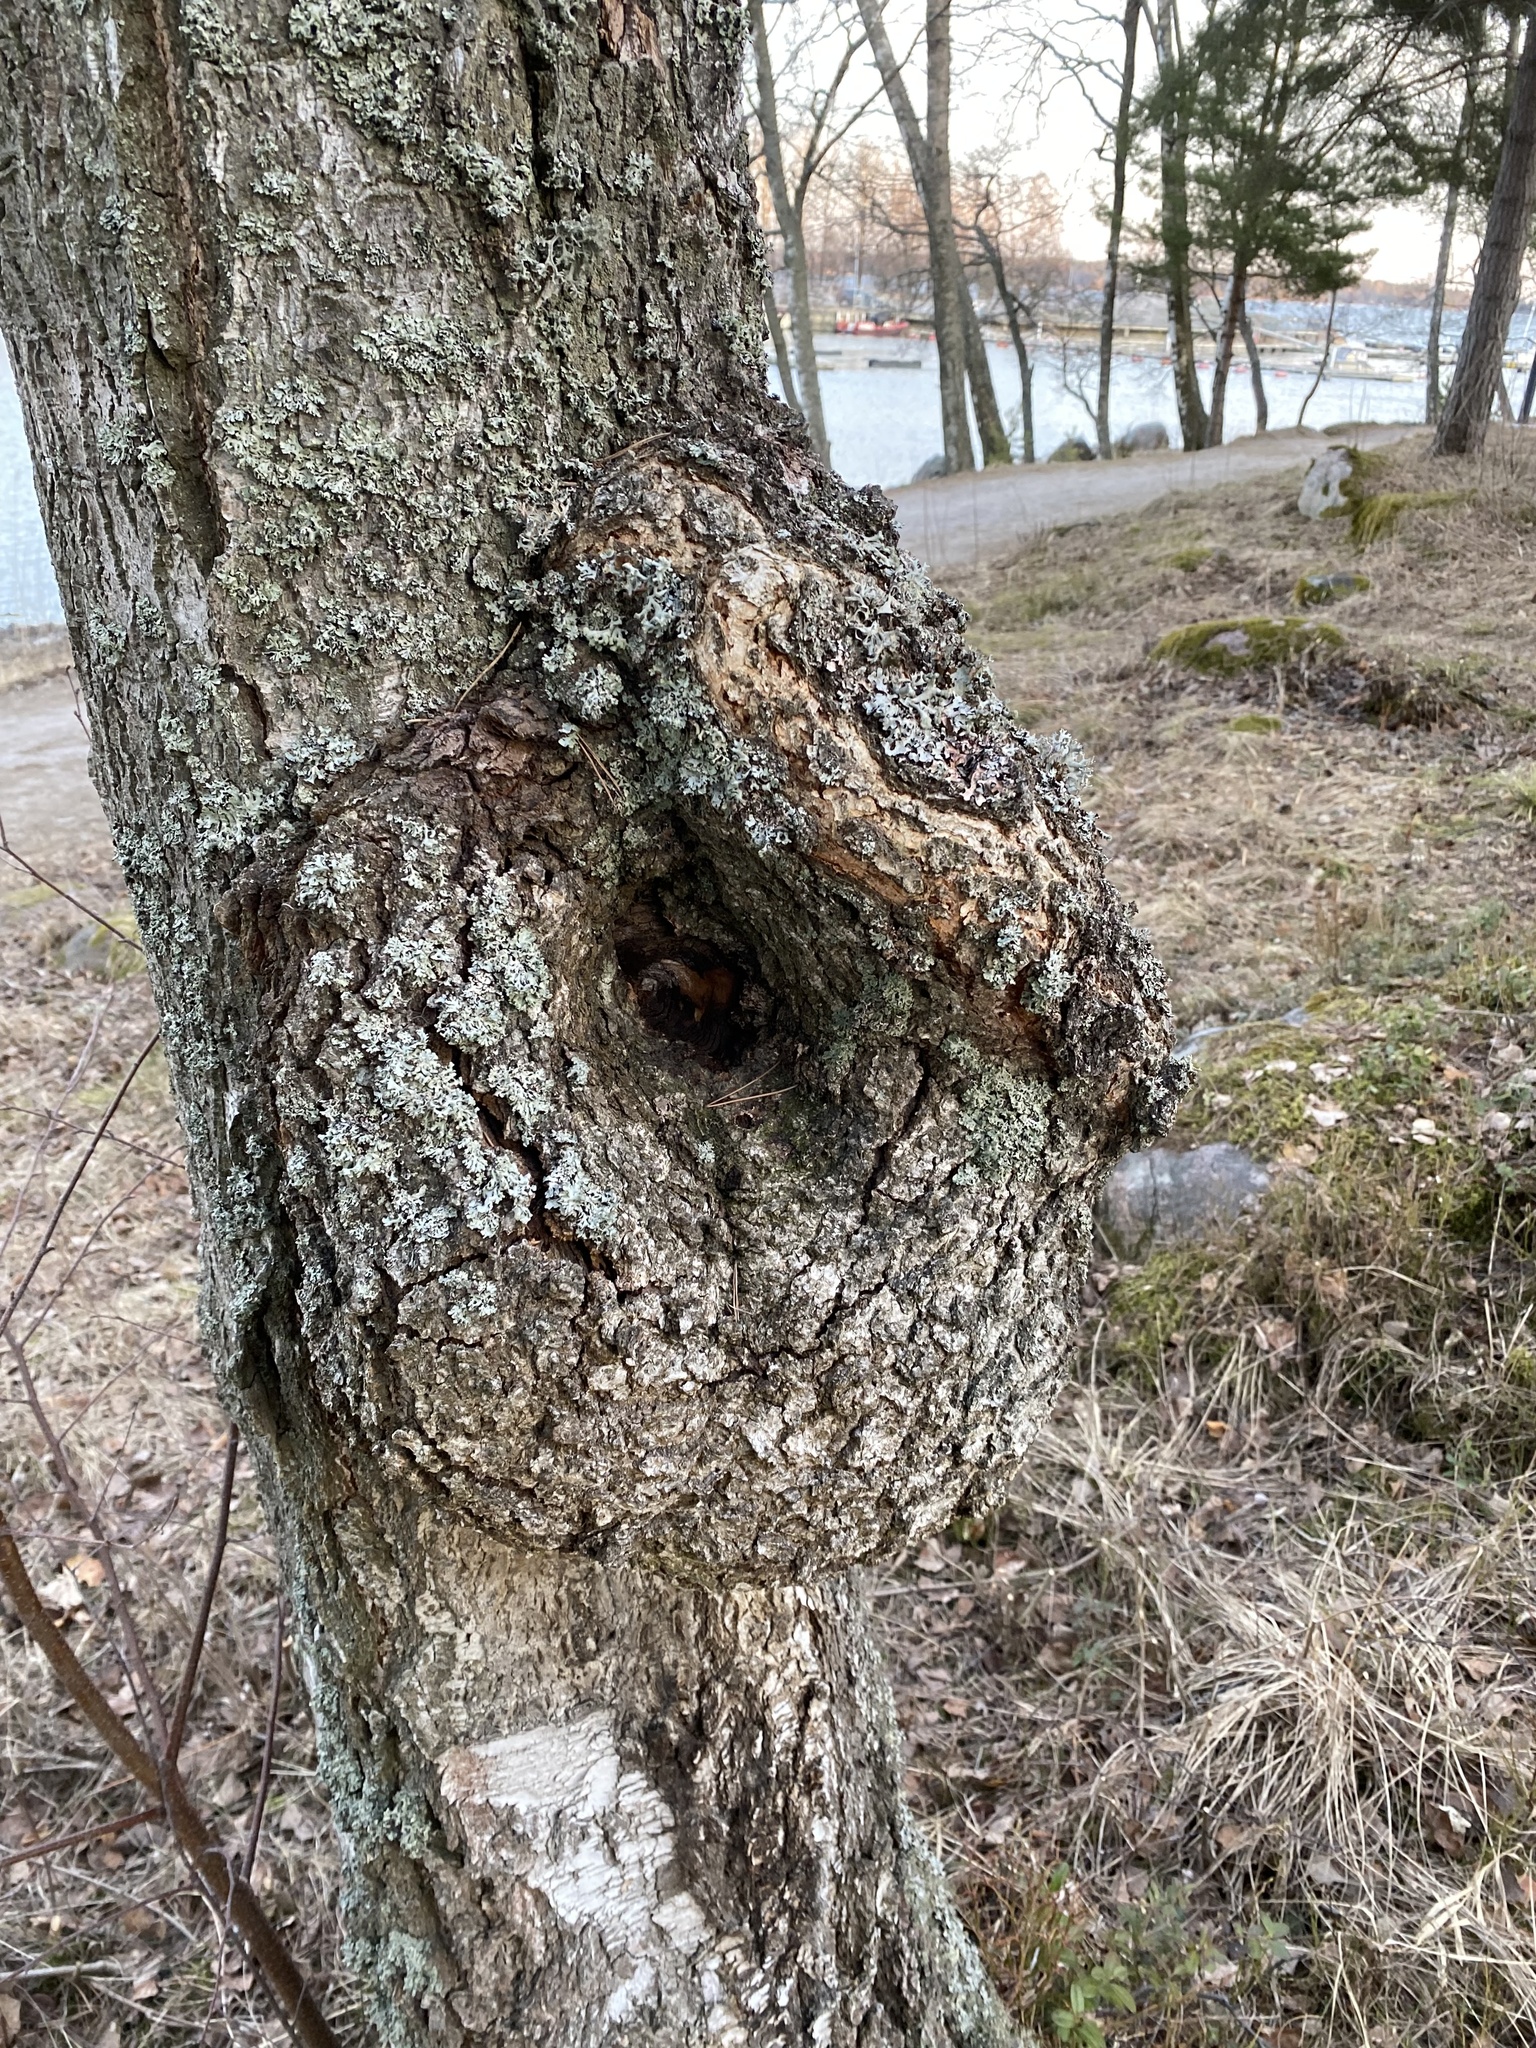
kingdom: Bacteria
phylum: Proteobacteria
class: Alphaproteobacteria
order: Rhizobiales
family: Rhizobiaceae
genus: Rhizobium
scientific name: Rhizobium Agrobacterium radiobacter
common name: Bacterial crown gall
